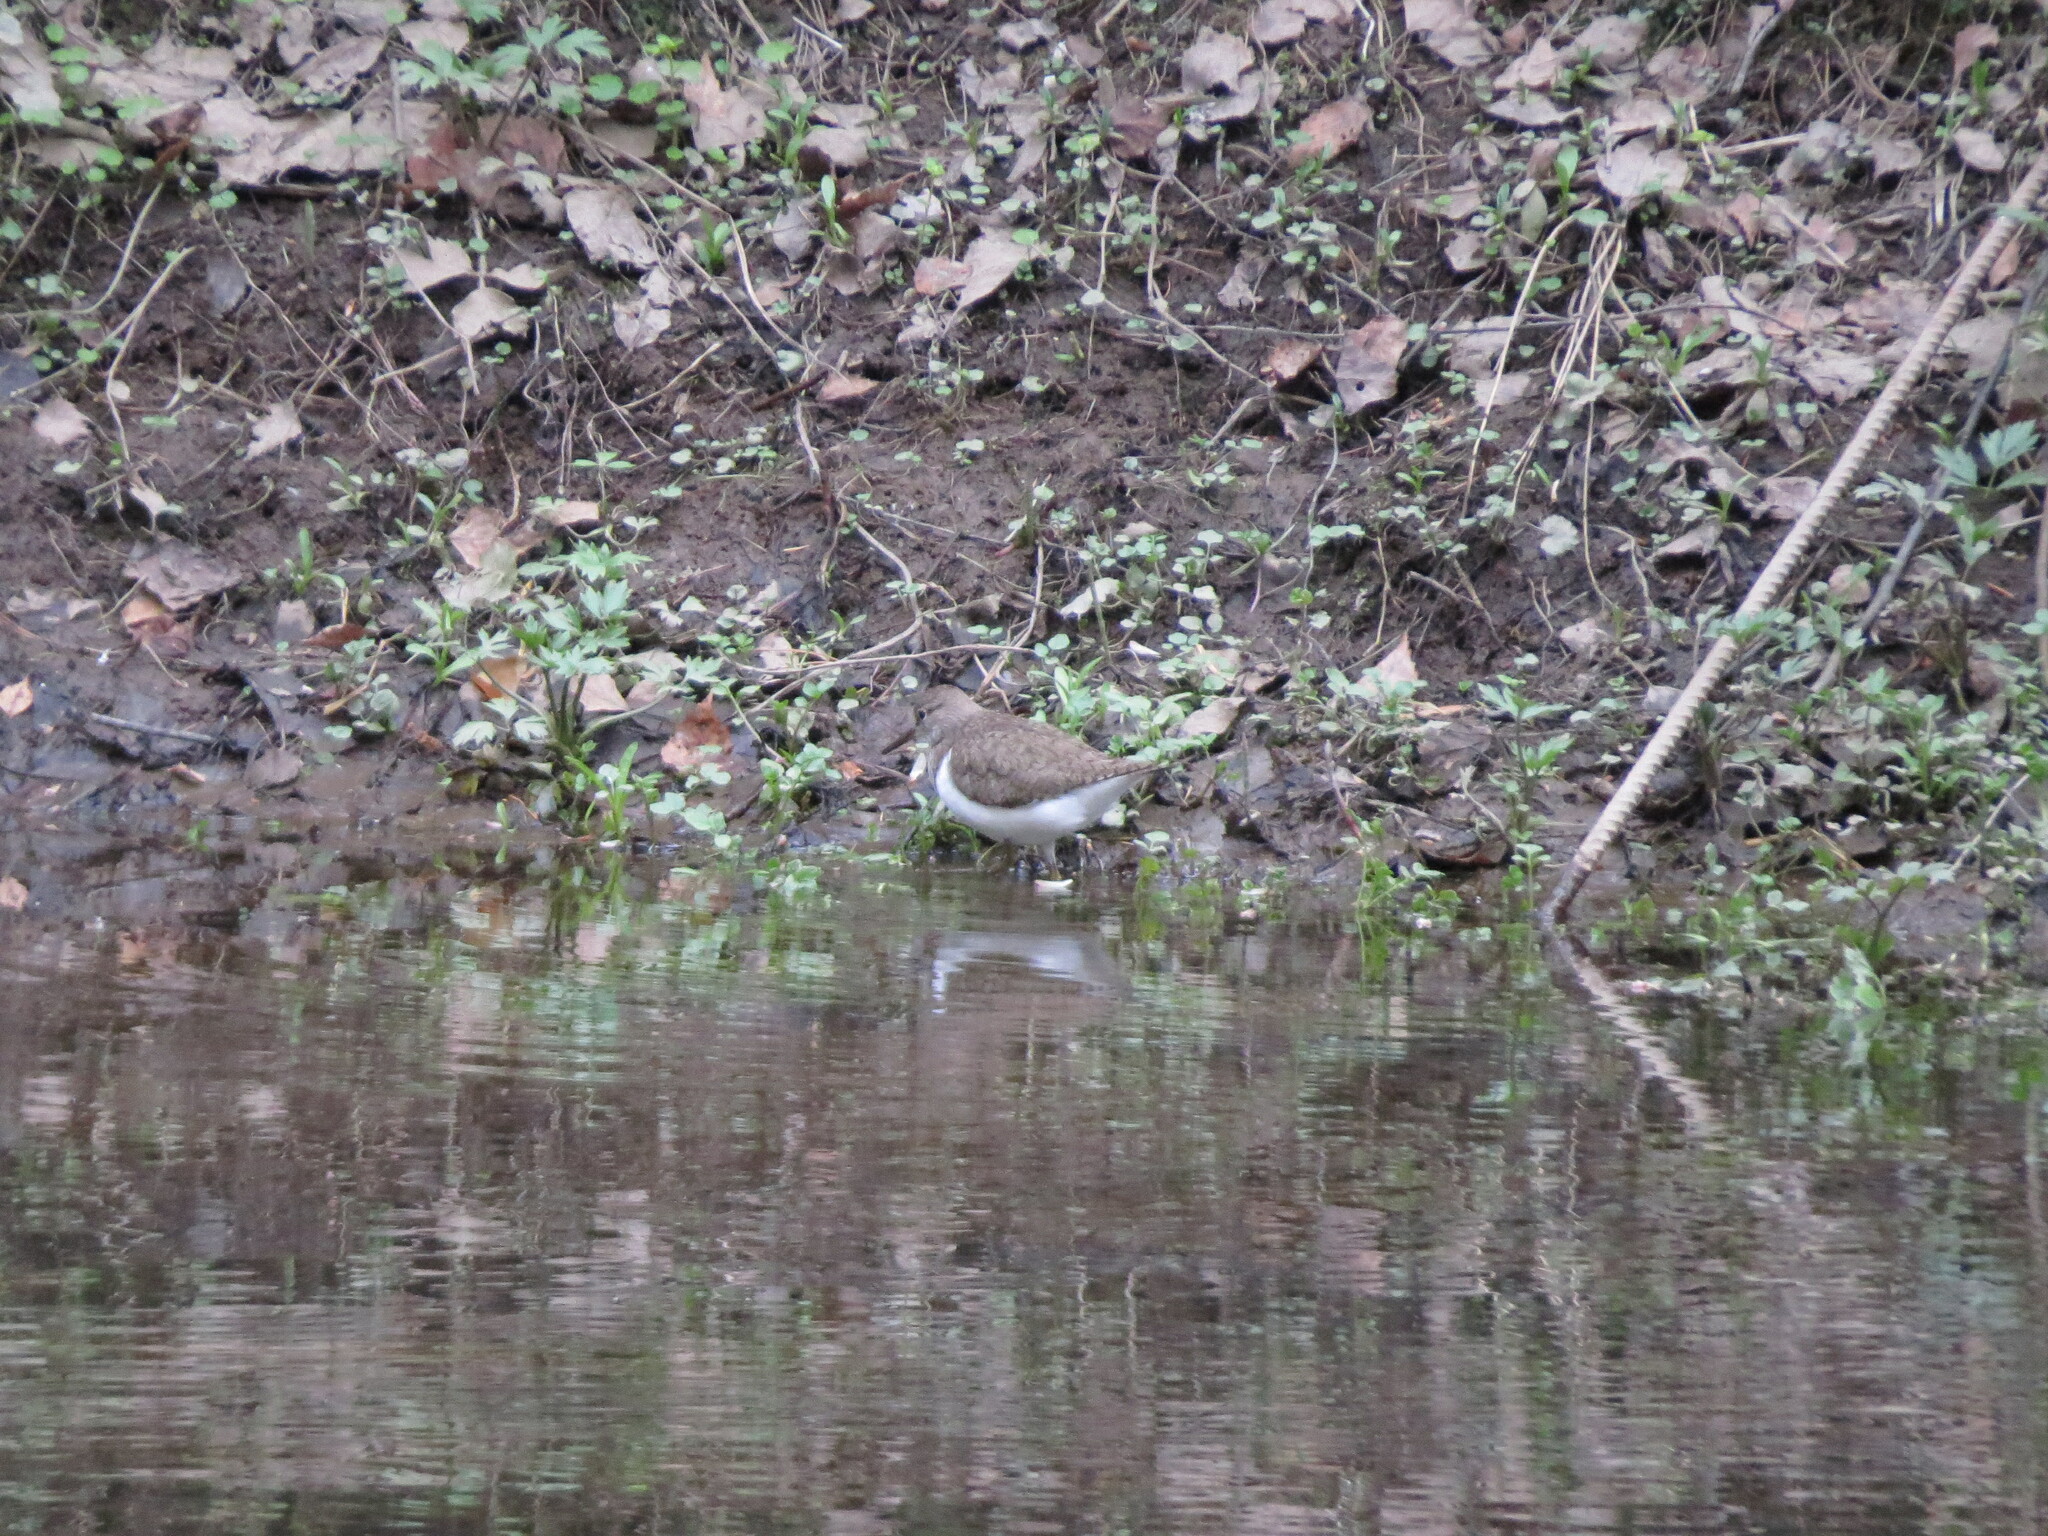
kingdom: Animalia
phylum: Chordata
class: Aves
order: Charadriiformes
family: Scolopacidae
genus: Actitis
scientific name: Actitis hypoleucos
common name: Common sandpiper
